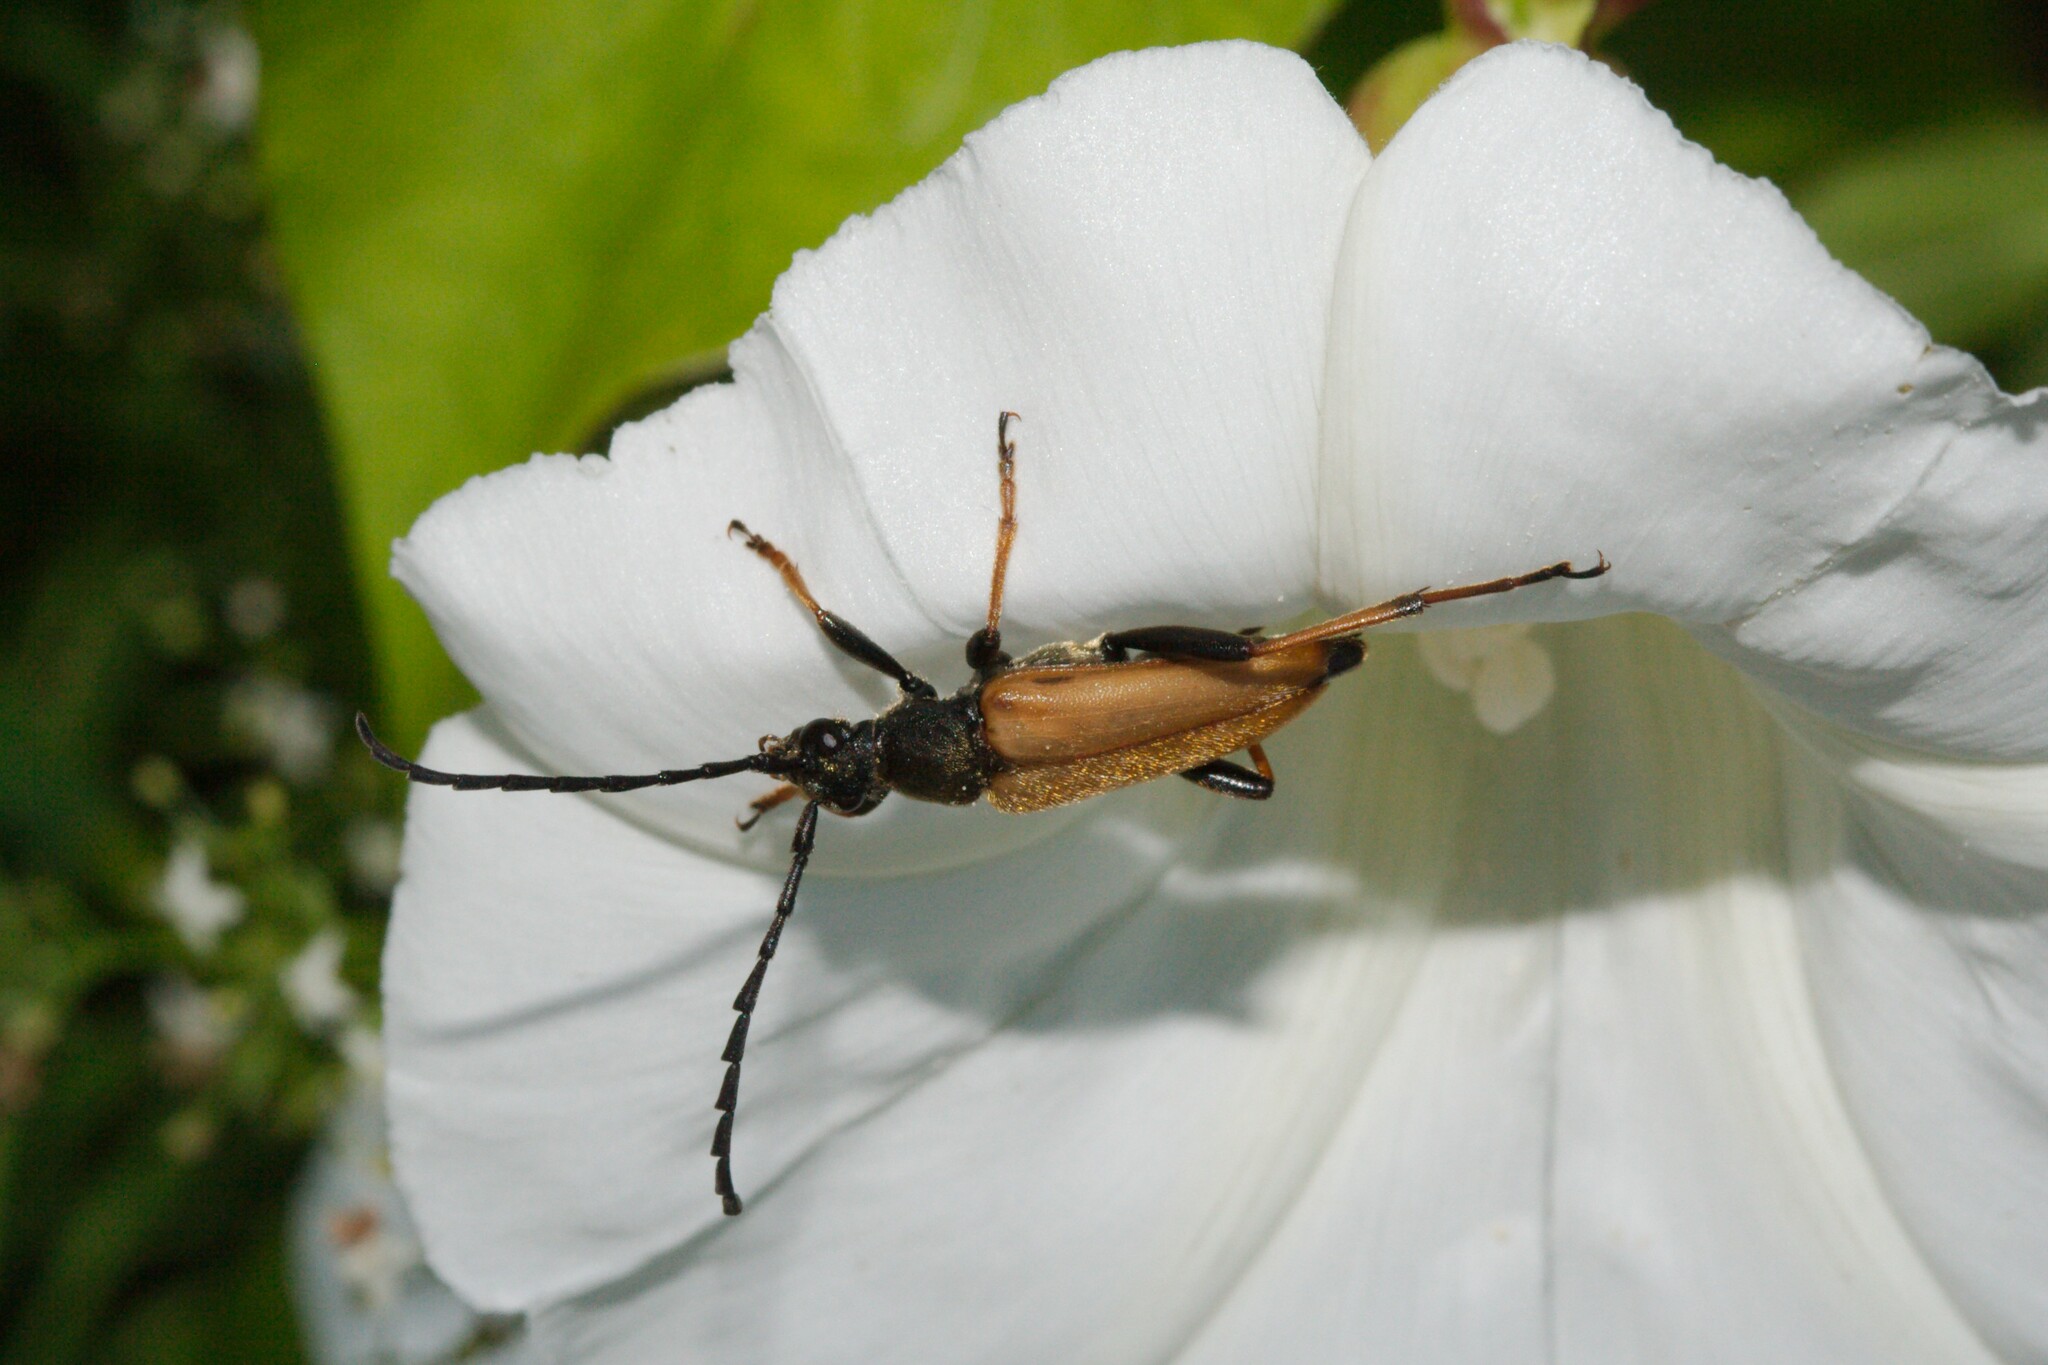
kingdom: Animalia
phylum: Arthropoda
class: Insecta
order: Coleoptera
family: Cerambycidae
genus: Stictoleptura
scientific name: Stictoleptura rubra
